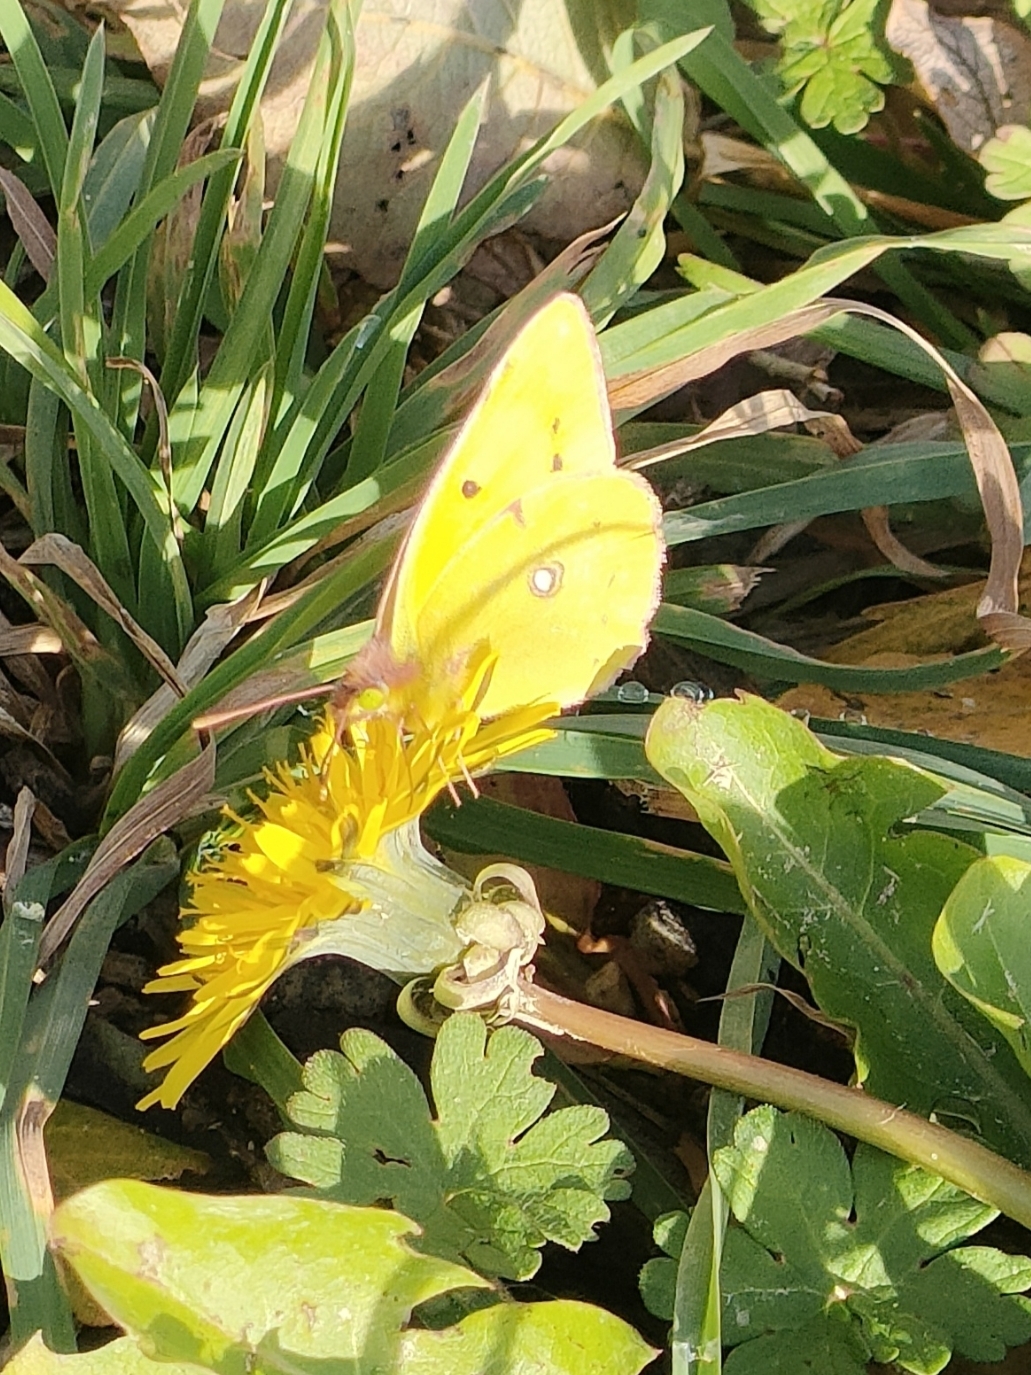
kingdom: Animalia
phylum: Arthropoda
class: Insecta
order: Lepidoptera
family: Pieridae
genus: Colias
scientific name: Colias croceus
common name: Clouded yellow
